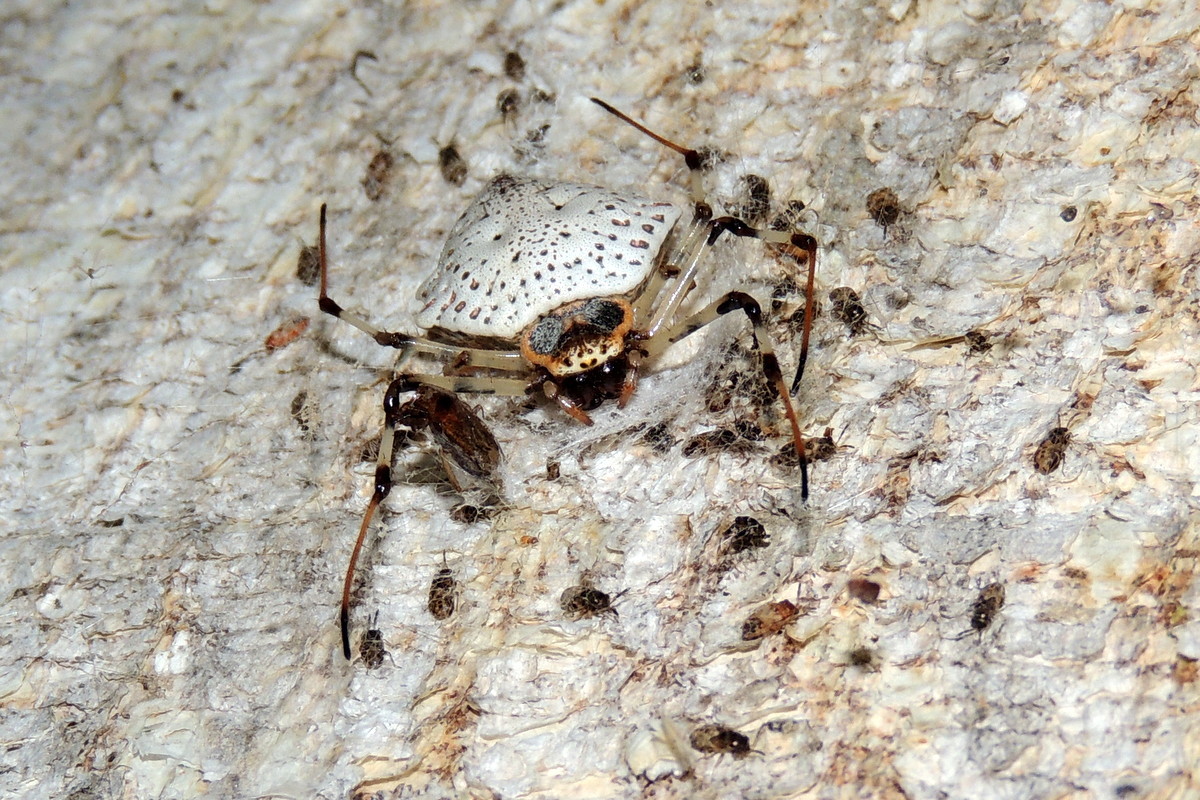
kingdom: Animalia
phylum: Arthropoda
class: Arachnida
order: Araneae
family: Araneidae
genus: Herennia
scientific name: Herennia multipuncta
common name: Spotted coin spider
